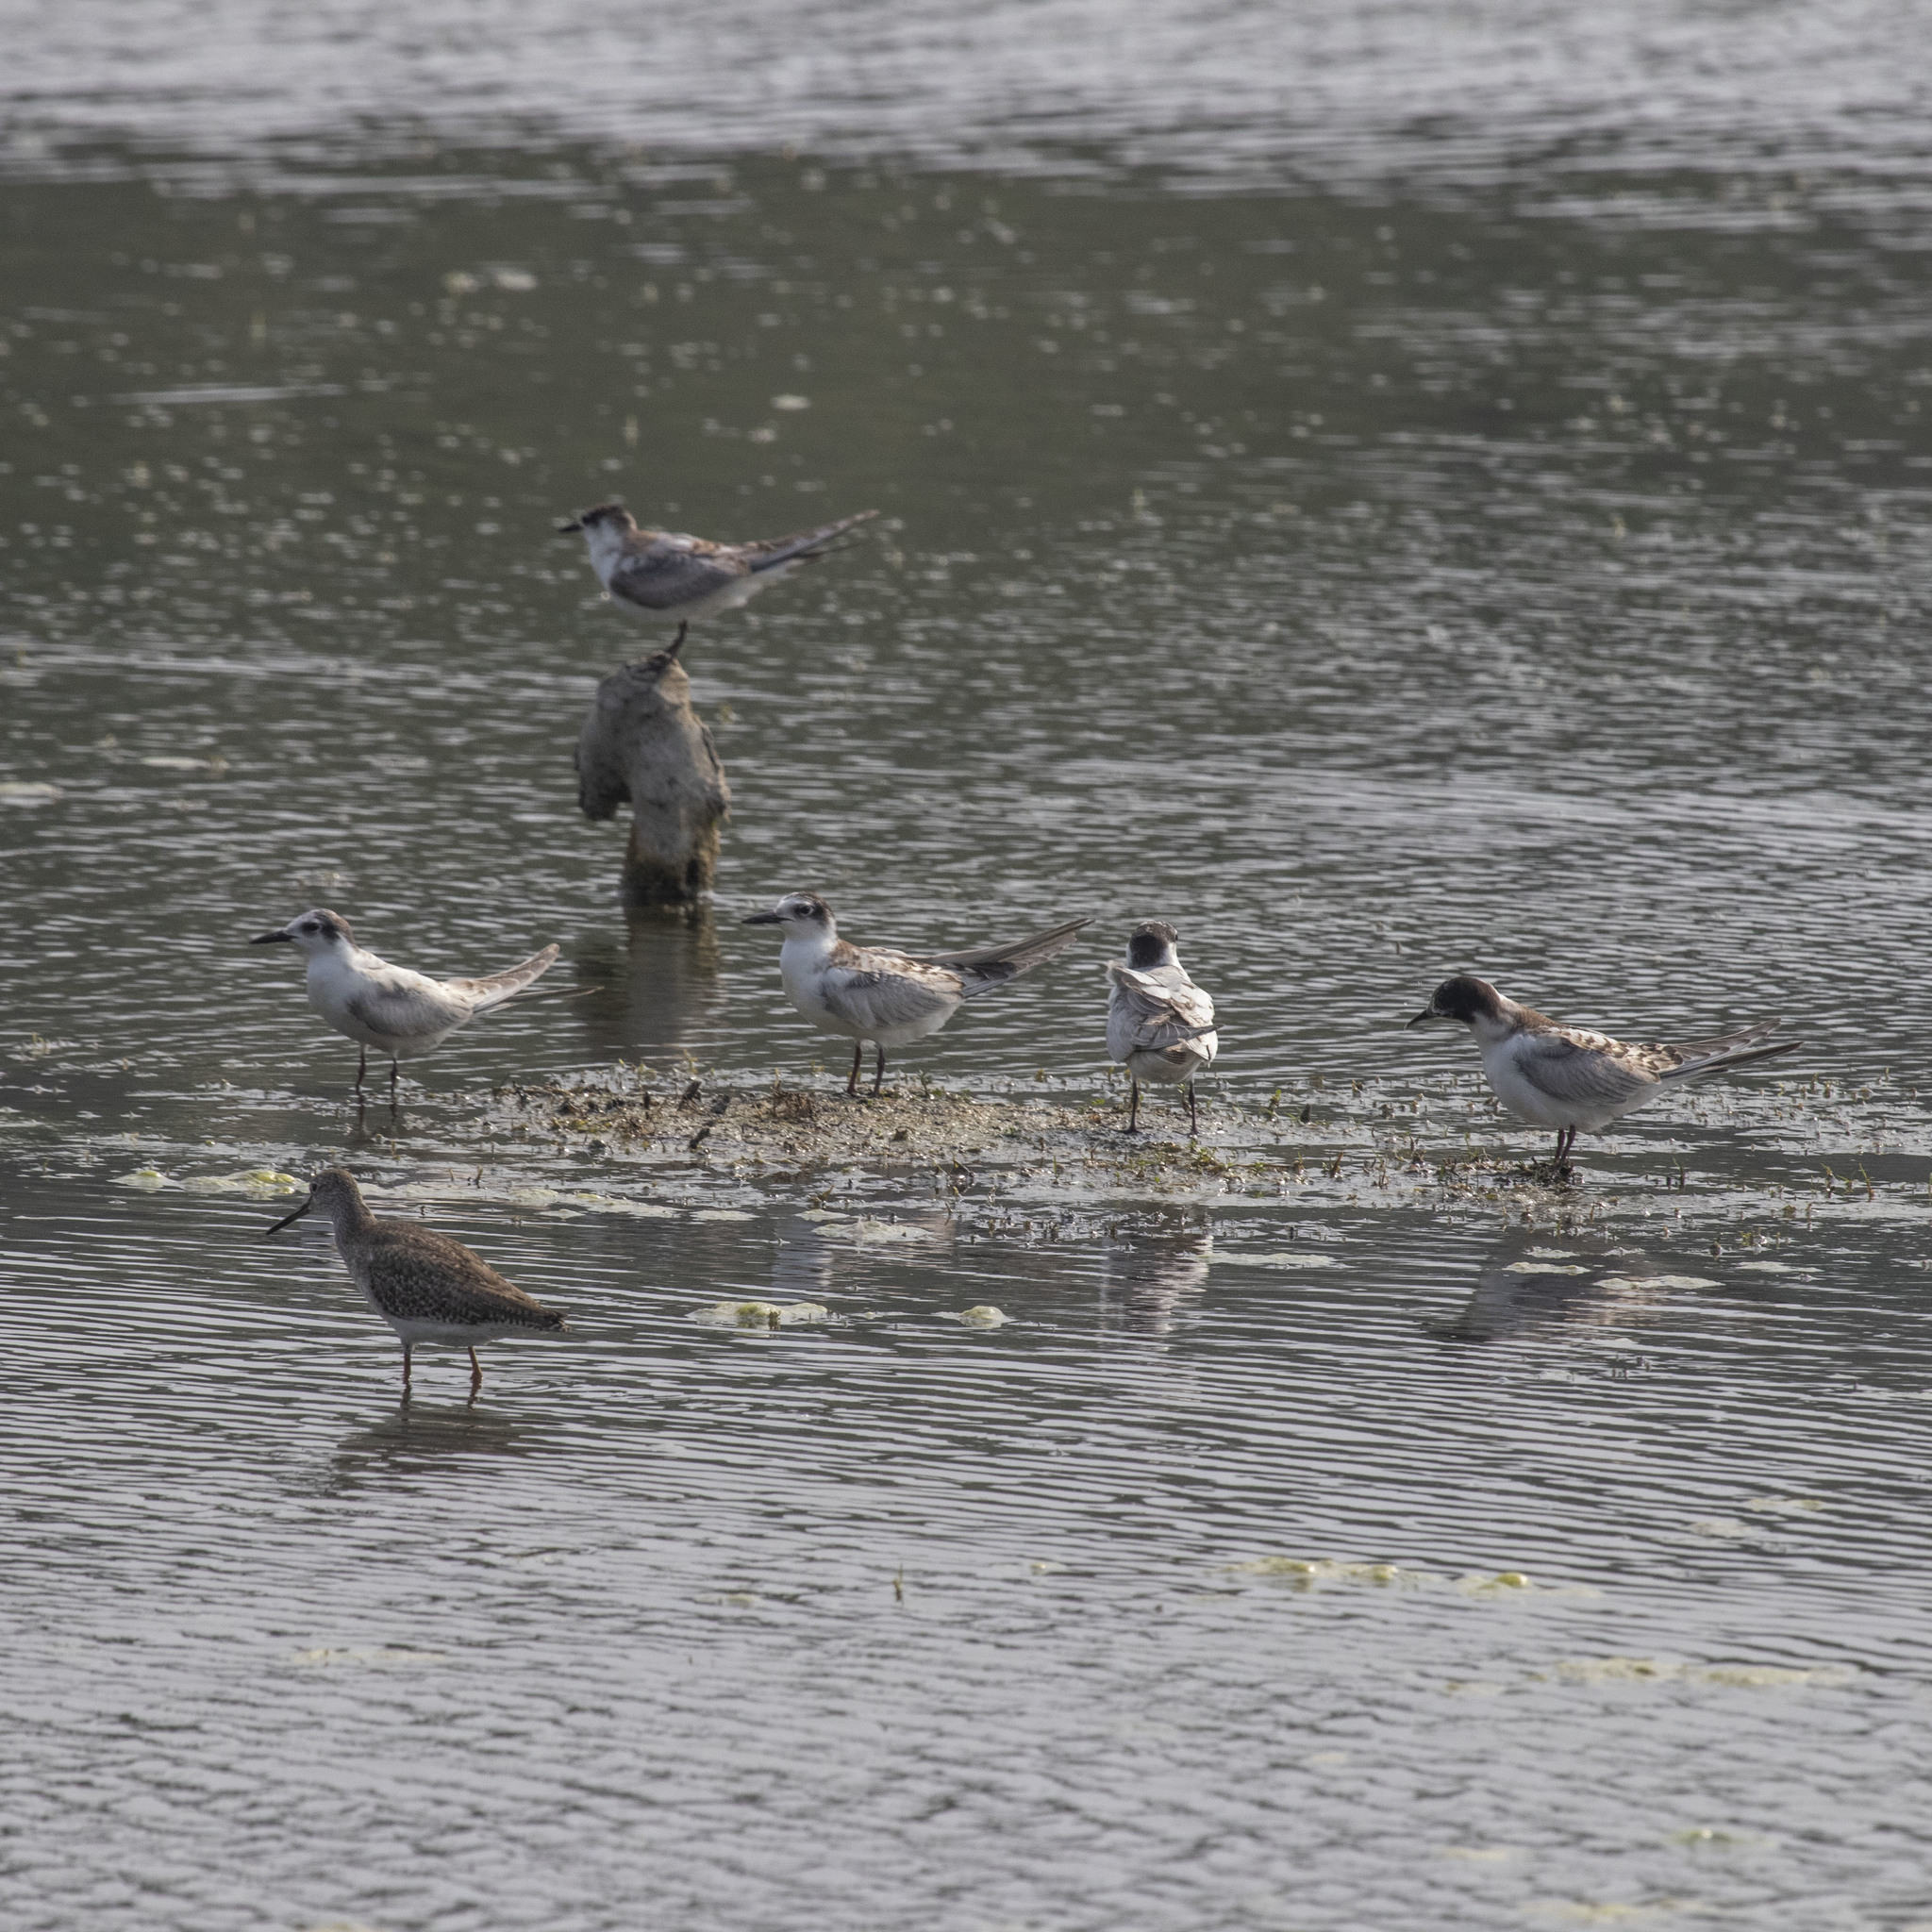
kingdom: Animalia
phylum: Chordata
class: Aves
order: Charadriiformes
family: Laridae
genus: Chlidonias
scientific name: Chlidonias hybrida
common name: Whiskered tern
